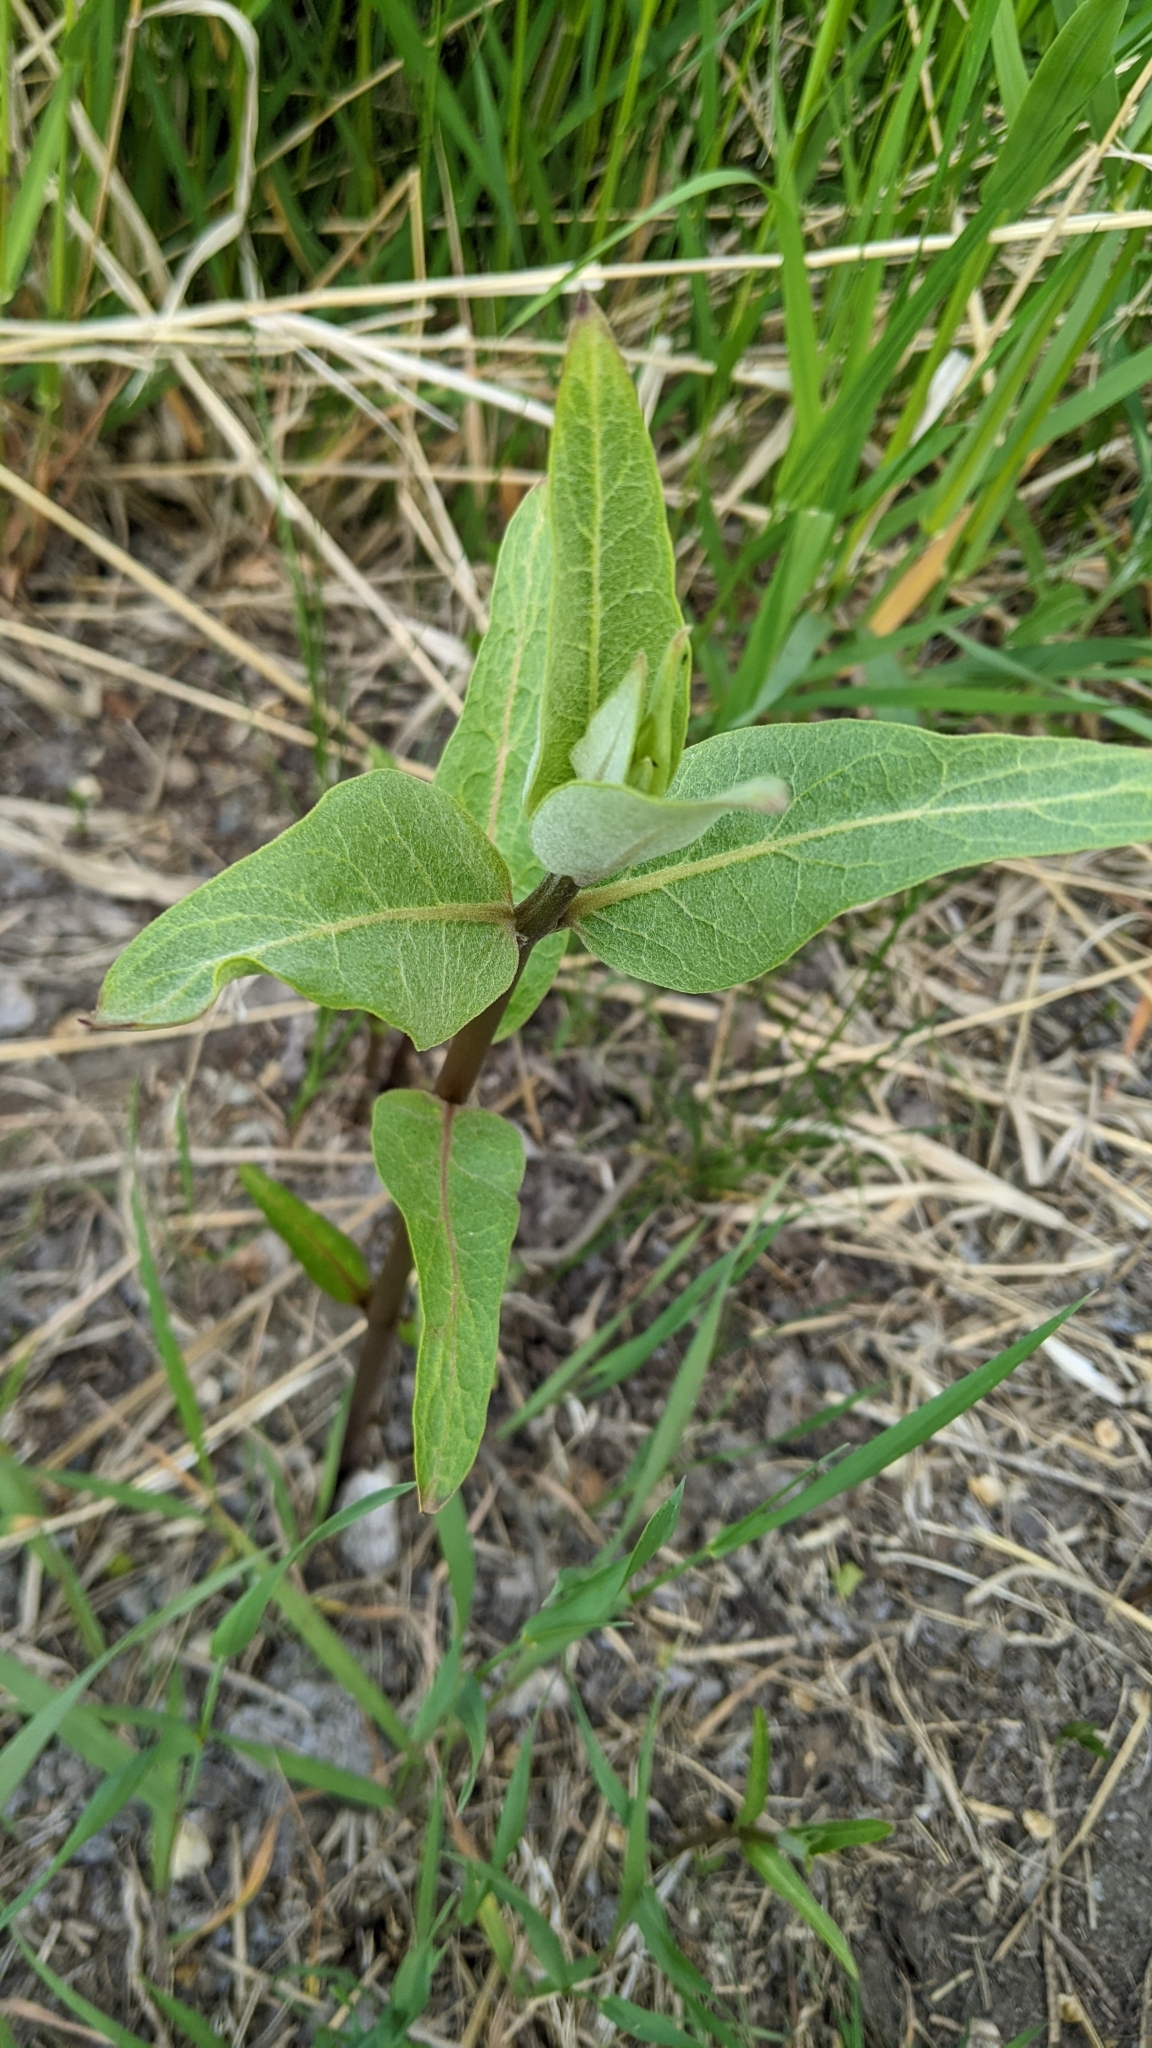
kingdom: Plantae
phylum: Tracheophyta
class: Magnoliopsida
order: Gentianales
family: Apocynaceae
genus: Asclepias
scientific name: Asclepias speciosa
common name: Showy milkweed
